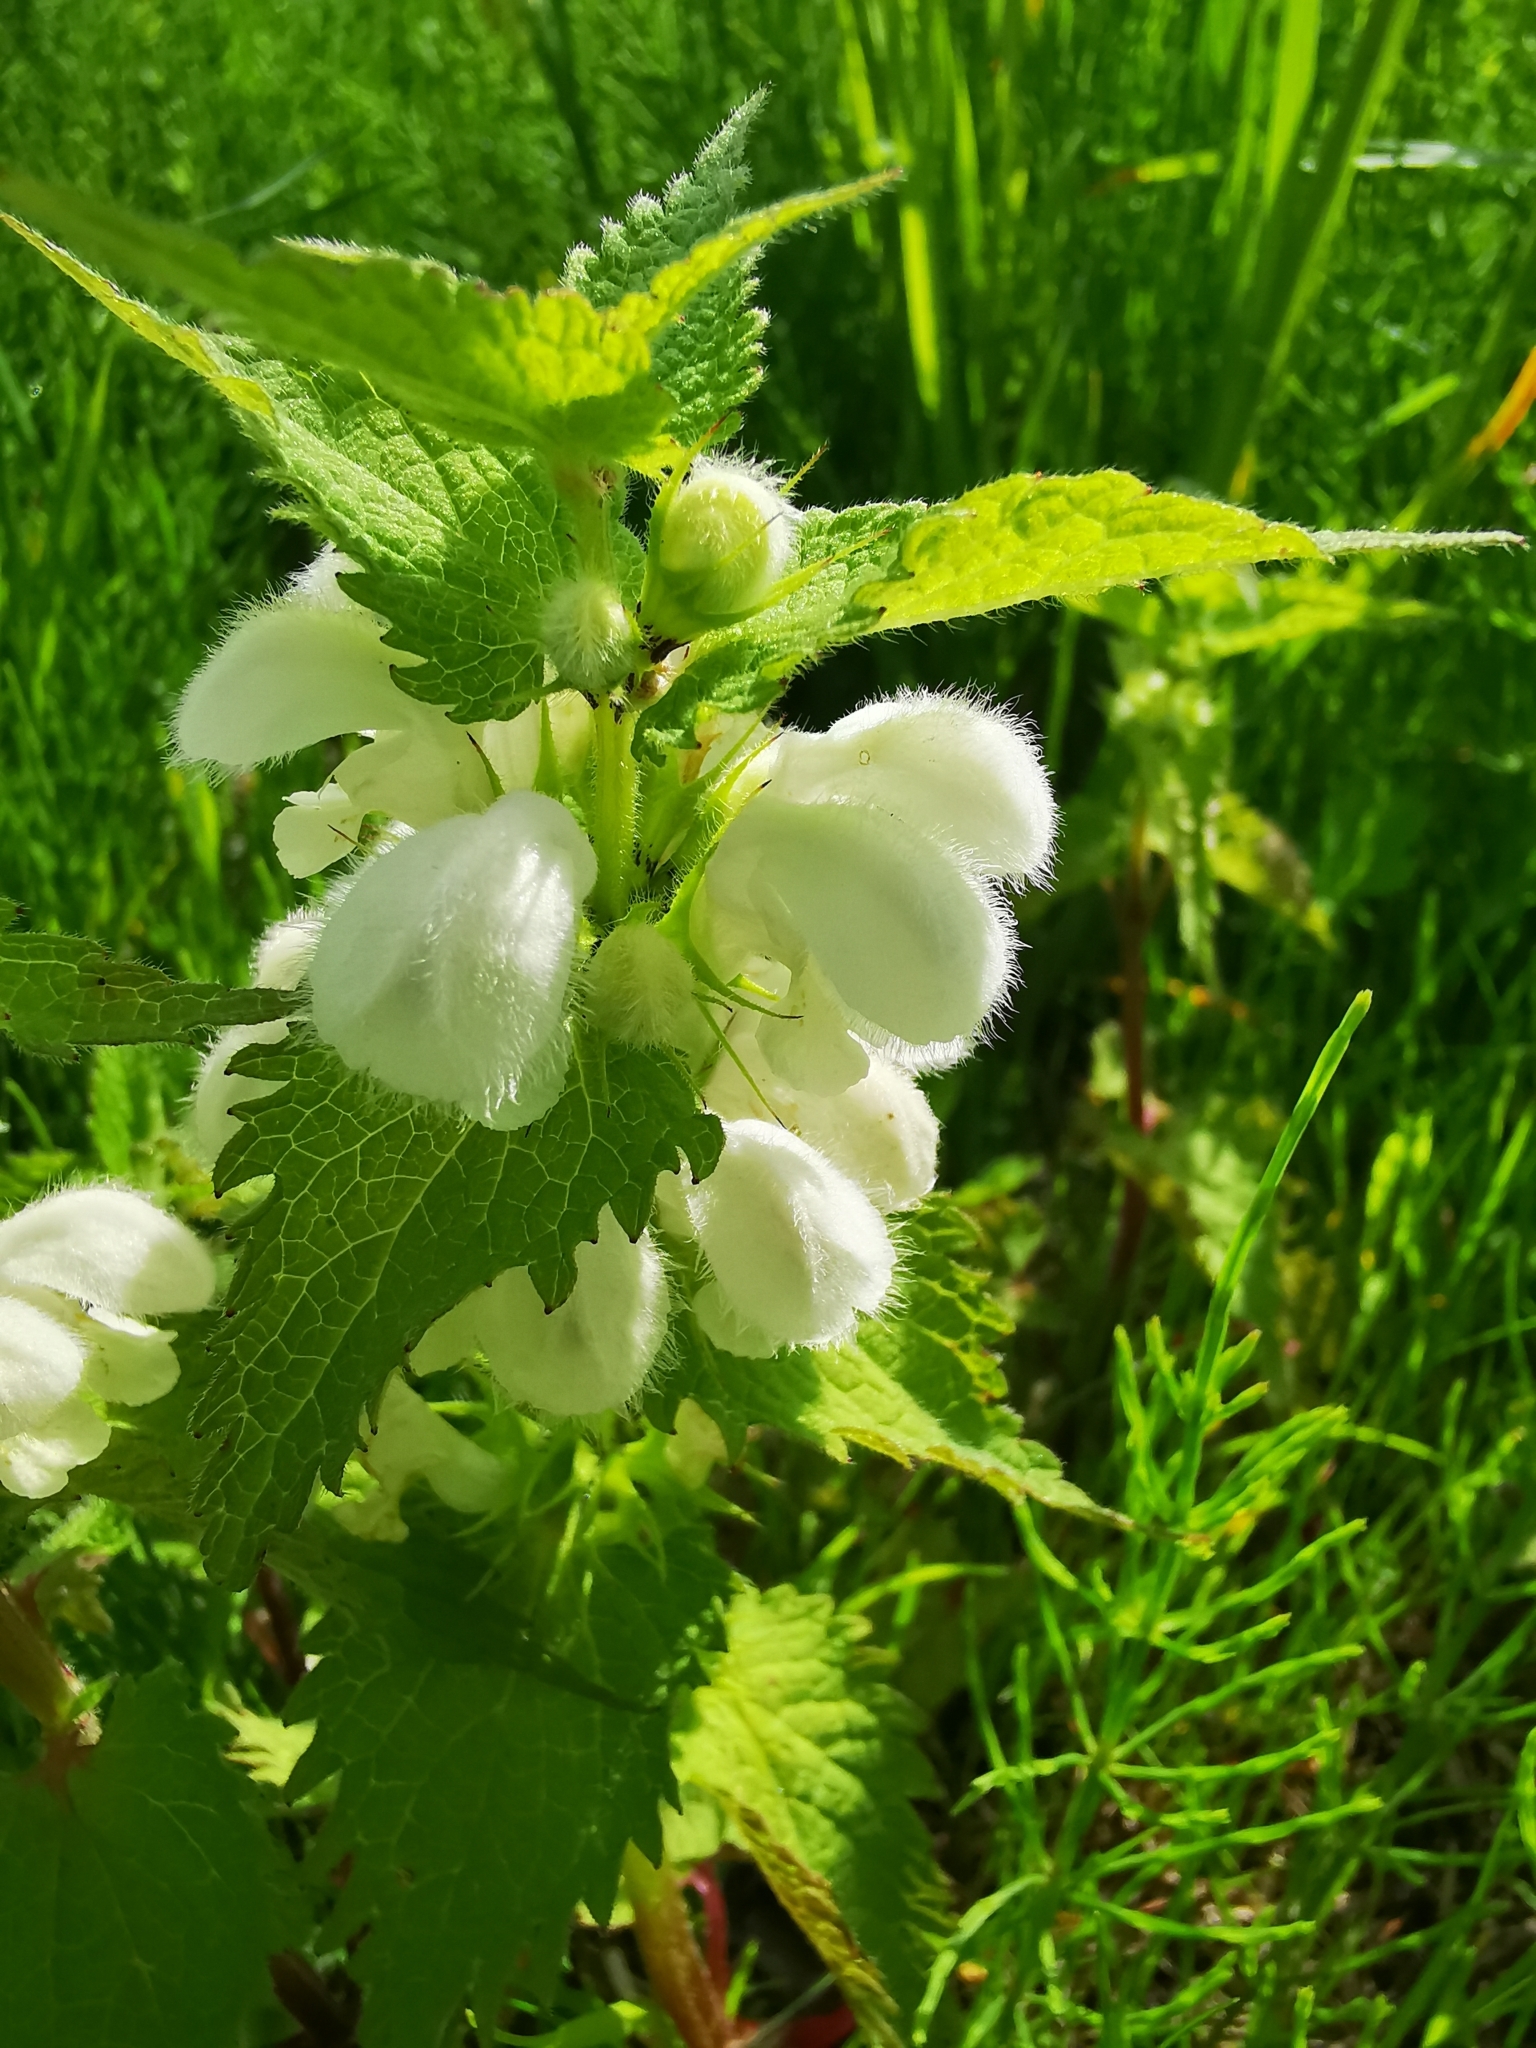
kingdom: Plantae
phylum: Tracheophyta
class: Magnoliopsida
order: Lamiales
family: Lamiaceae
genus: Lamium
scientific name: Lamium album
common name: White dead-nettle
